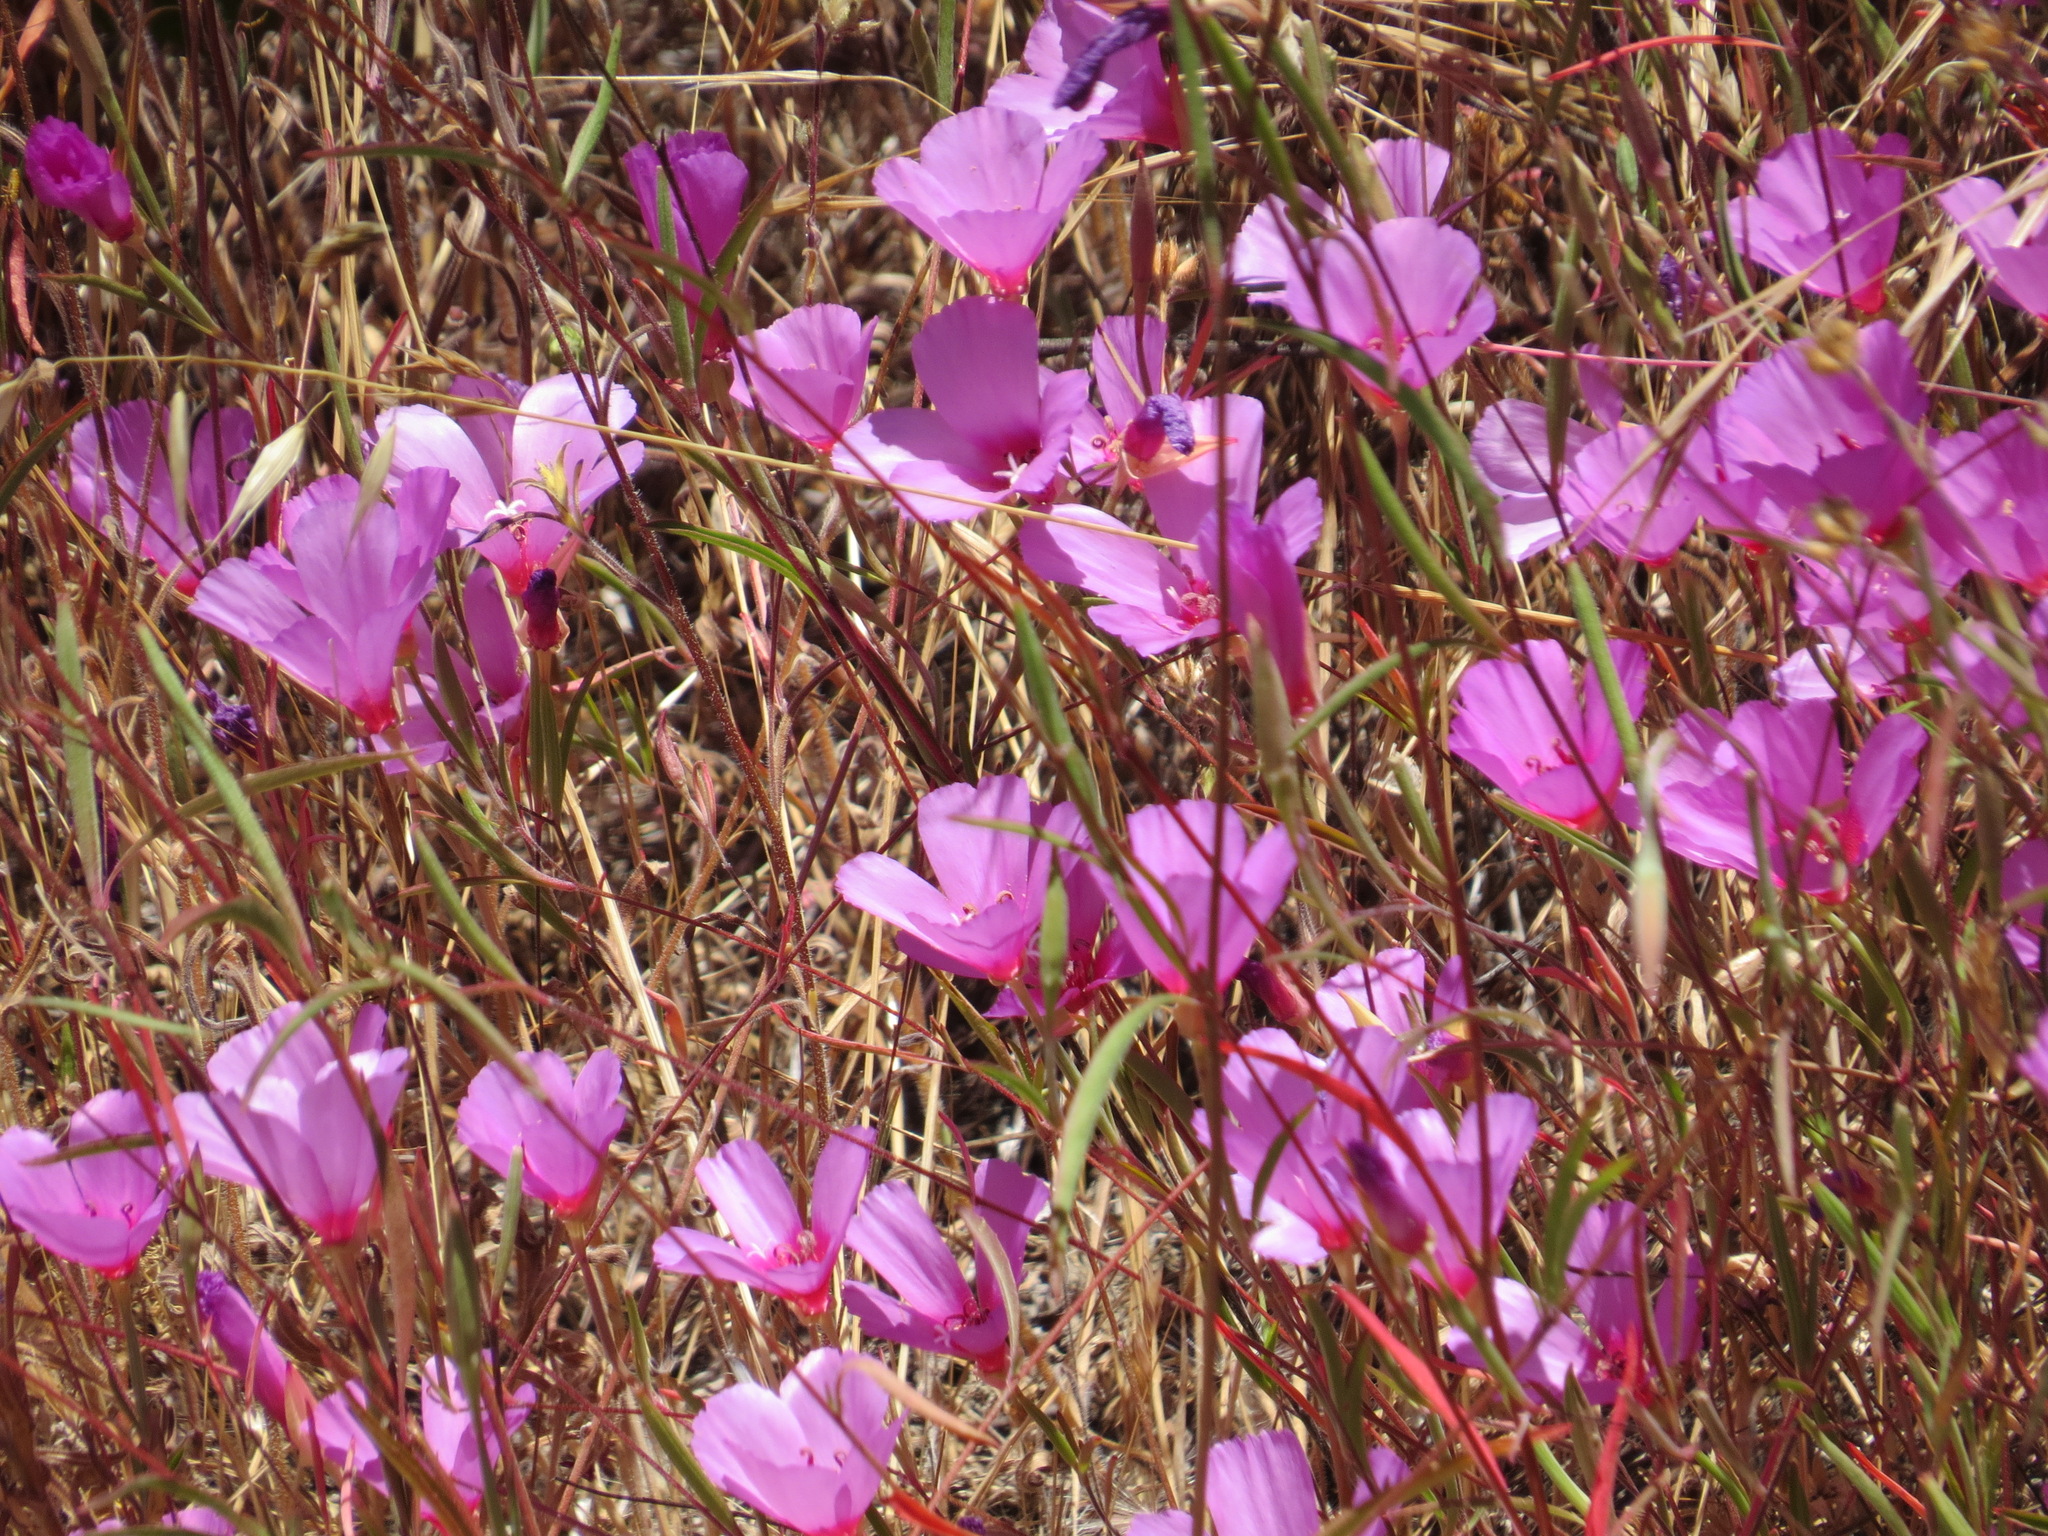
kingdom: Plantae
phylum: Tracheophyta
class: Magnoliopsida
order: Myrtales
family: Onagraceae
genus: Clarkia
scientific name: Clarkia rubicunda
